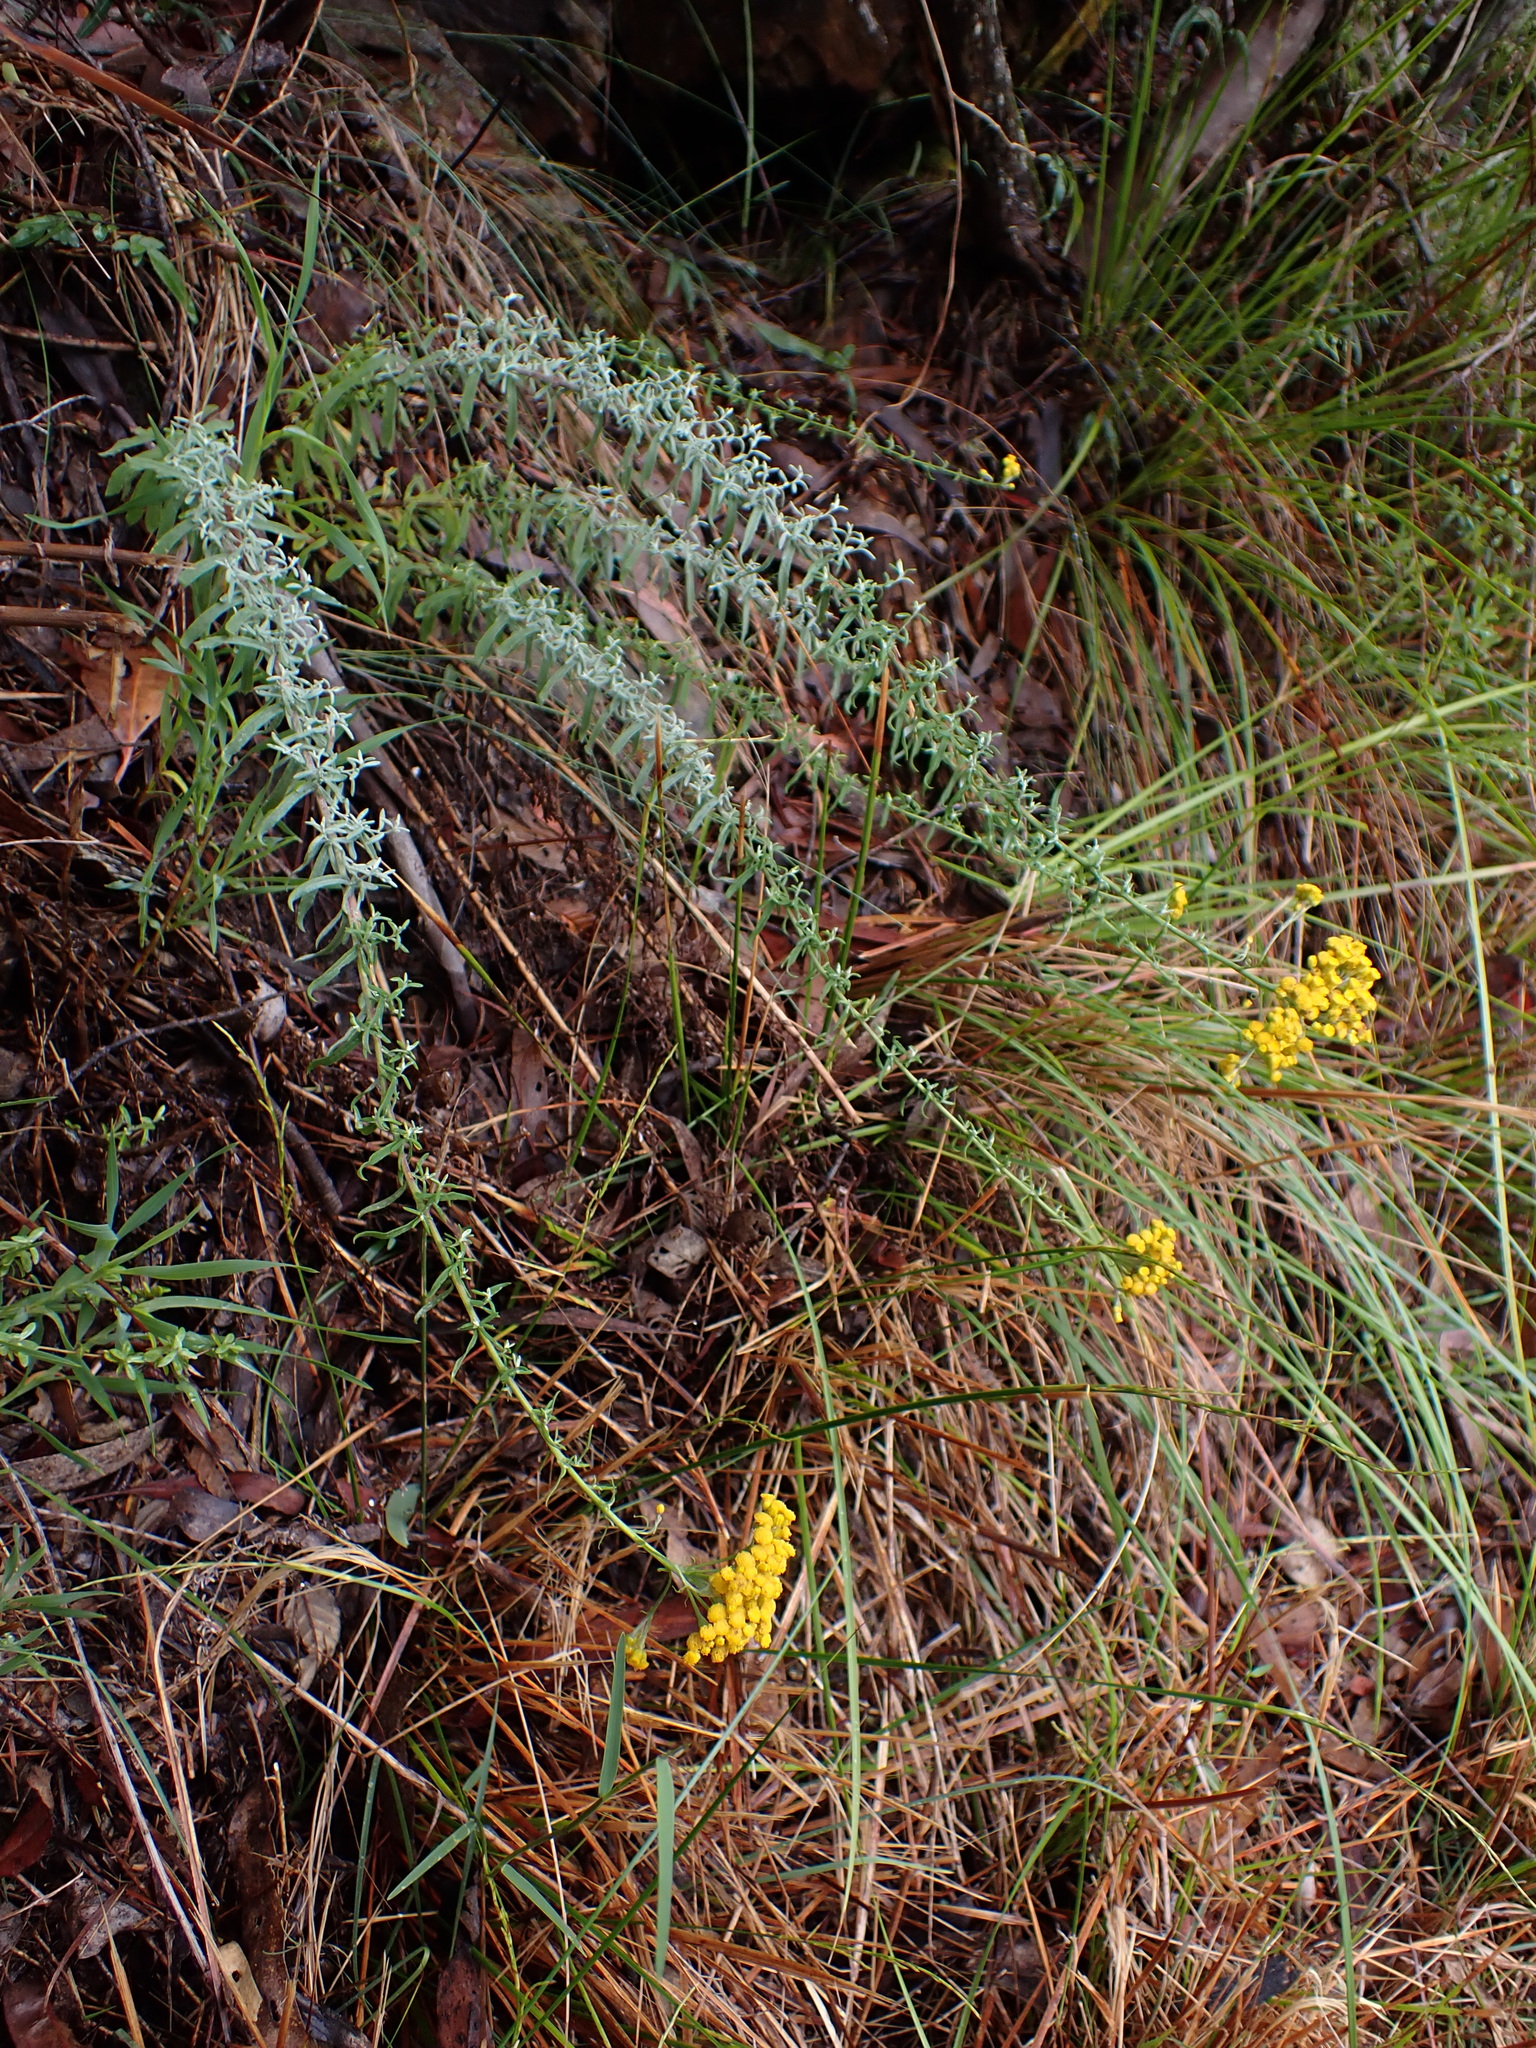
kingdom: Plantae
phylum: Tracheophyta
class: Magnoliopsida
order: Asterales
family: Asteraceae
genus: Chrysocephalum
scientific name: Chrysocephalum semipapposum
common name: Clustered everlasting
